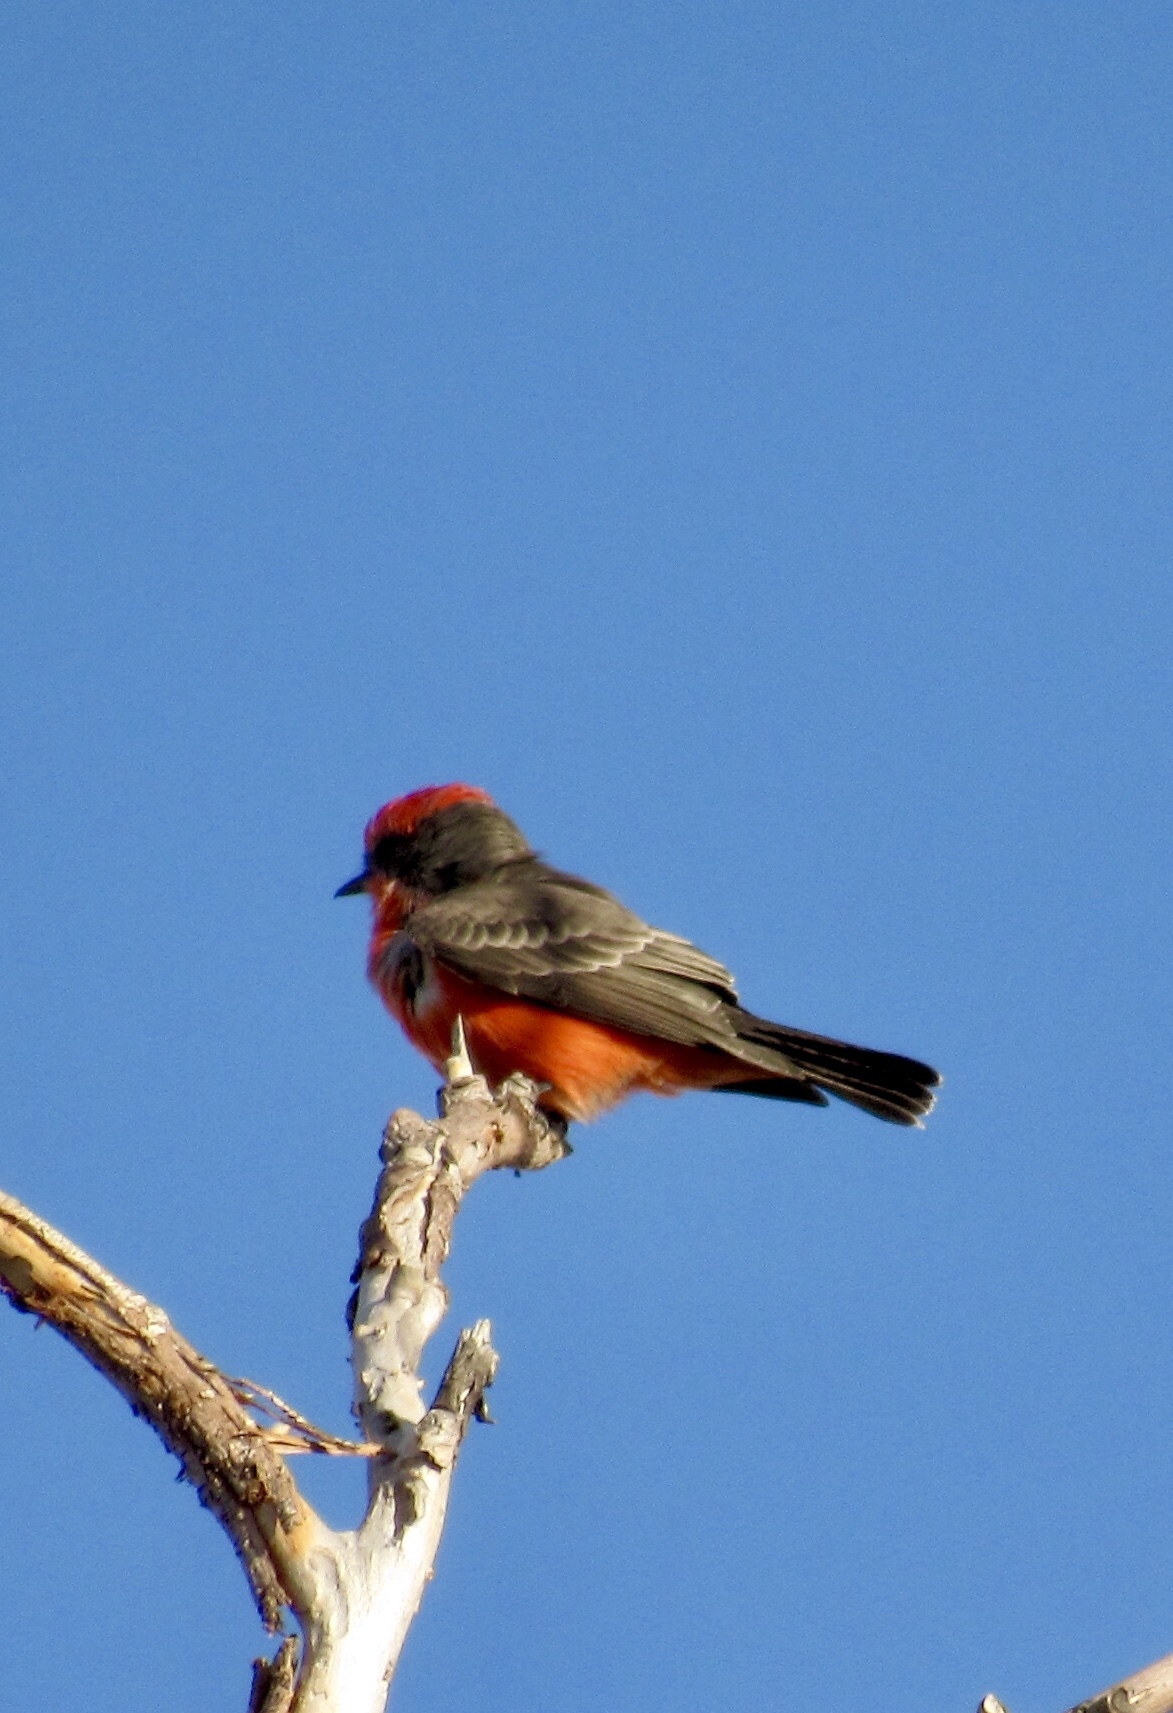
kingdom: Animalia
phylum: Chordata
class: Aves
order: Passeriformes
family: Tyrannidae
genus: Pyrocephalus
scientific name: Pyrocephalus rubinus
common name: Vermilion flycatcher
